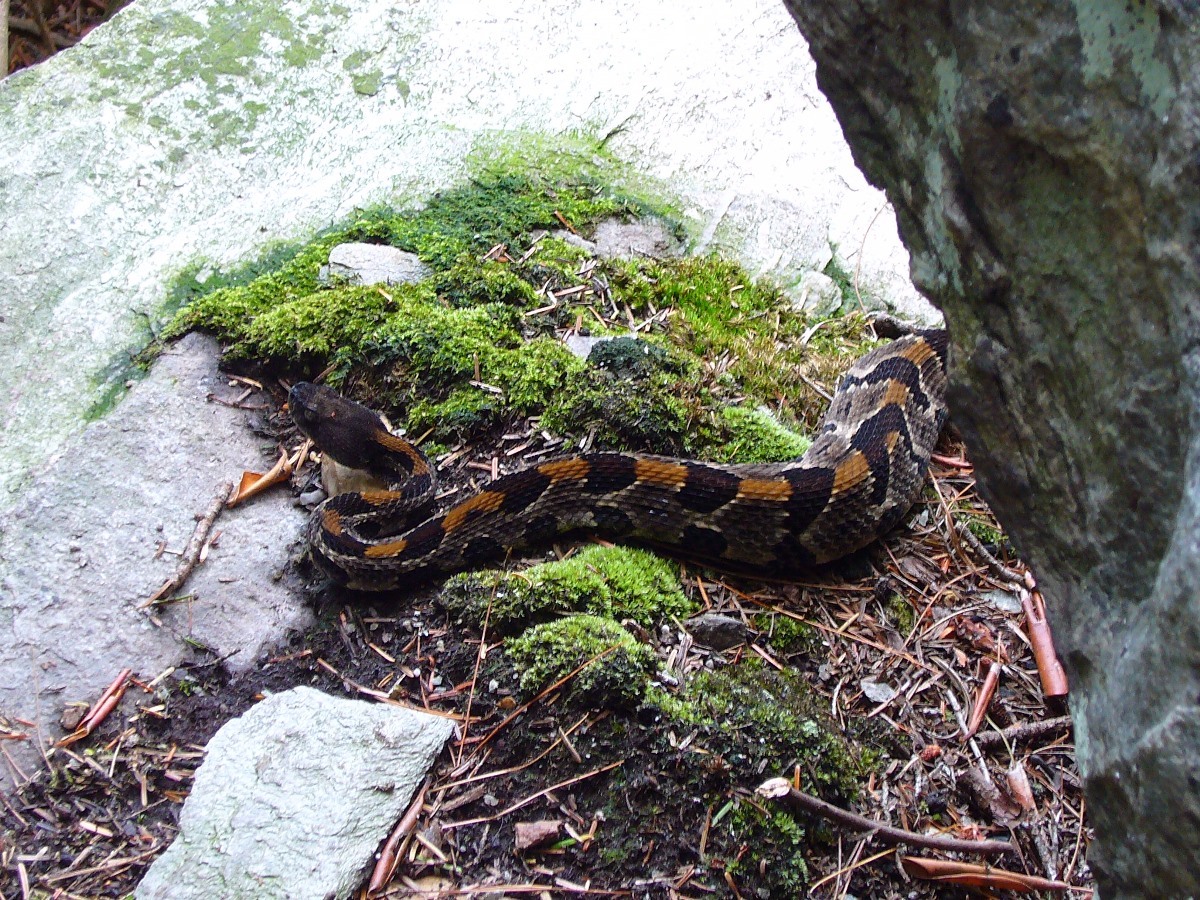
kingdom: Animalia
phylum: Chordata
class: Squamata
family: Viperidae
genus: Crotalus
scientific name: Crotalus horridus
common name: Timber rattlesnake
